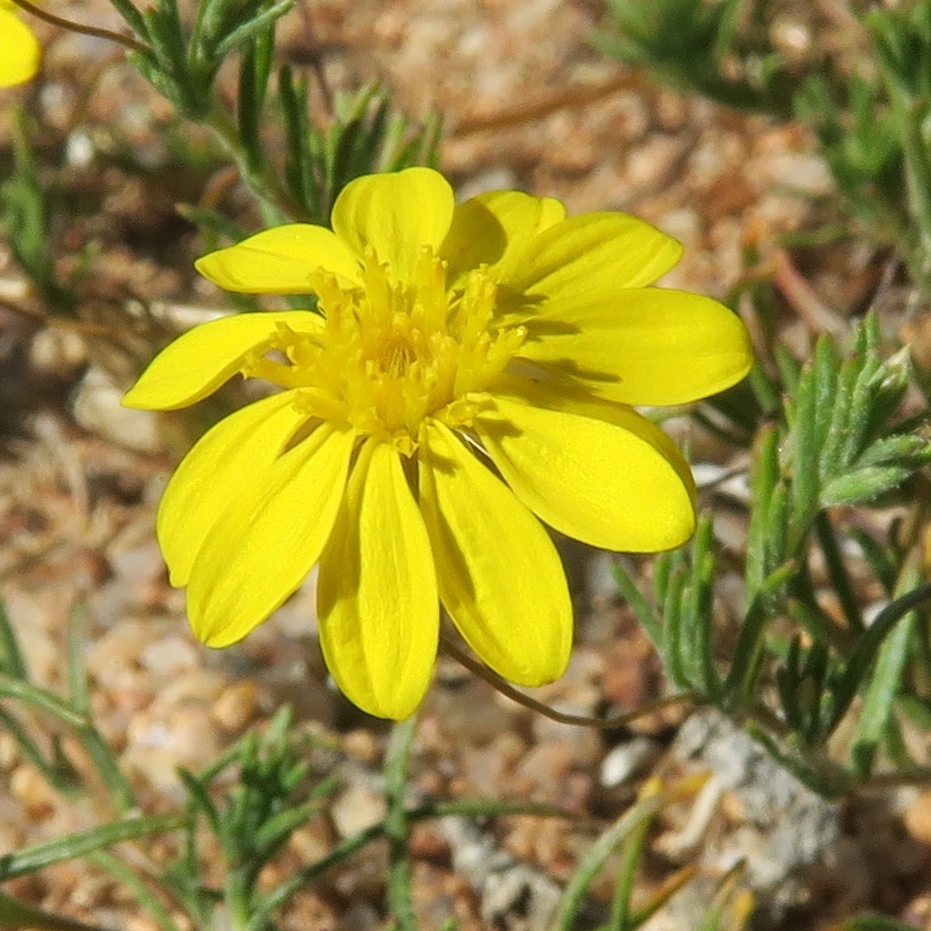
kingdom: Plantae
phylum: Tracheophyta
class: Magnoliopsida
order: Asterales
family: Asteraceae
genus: Leysera
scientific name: Leysera tenella
